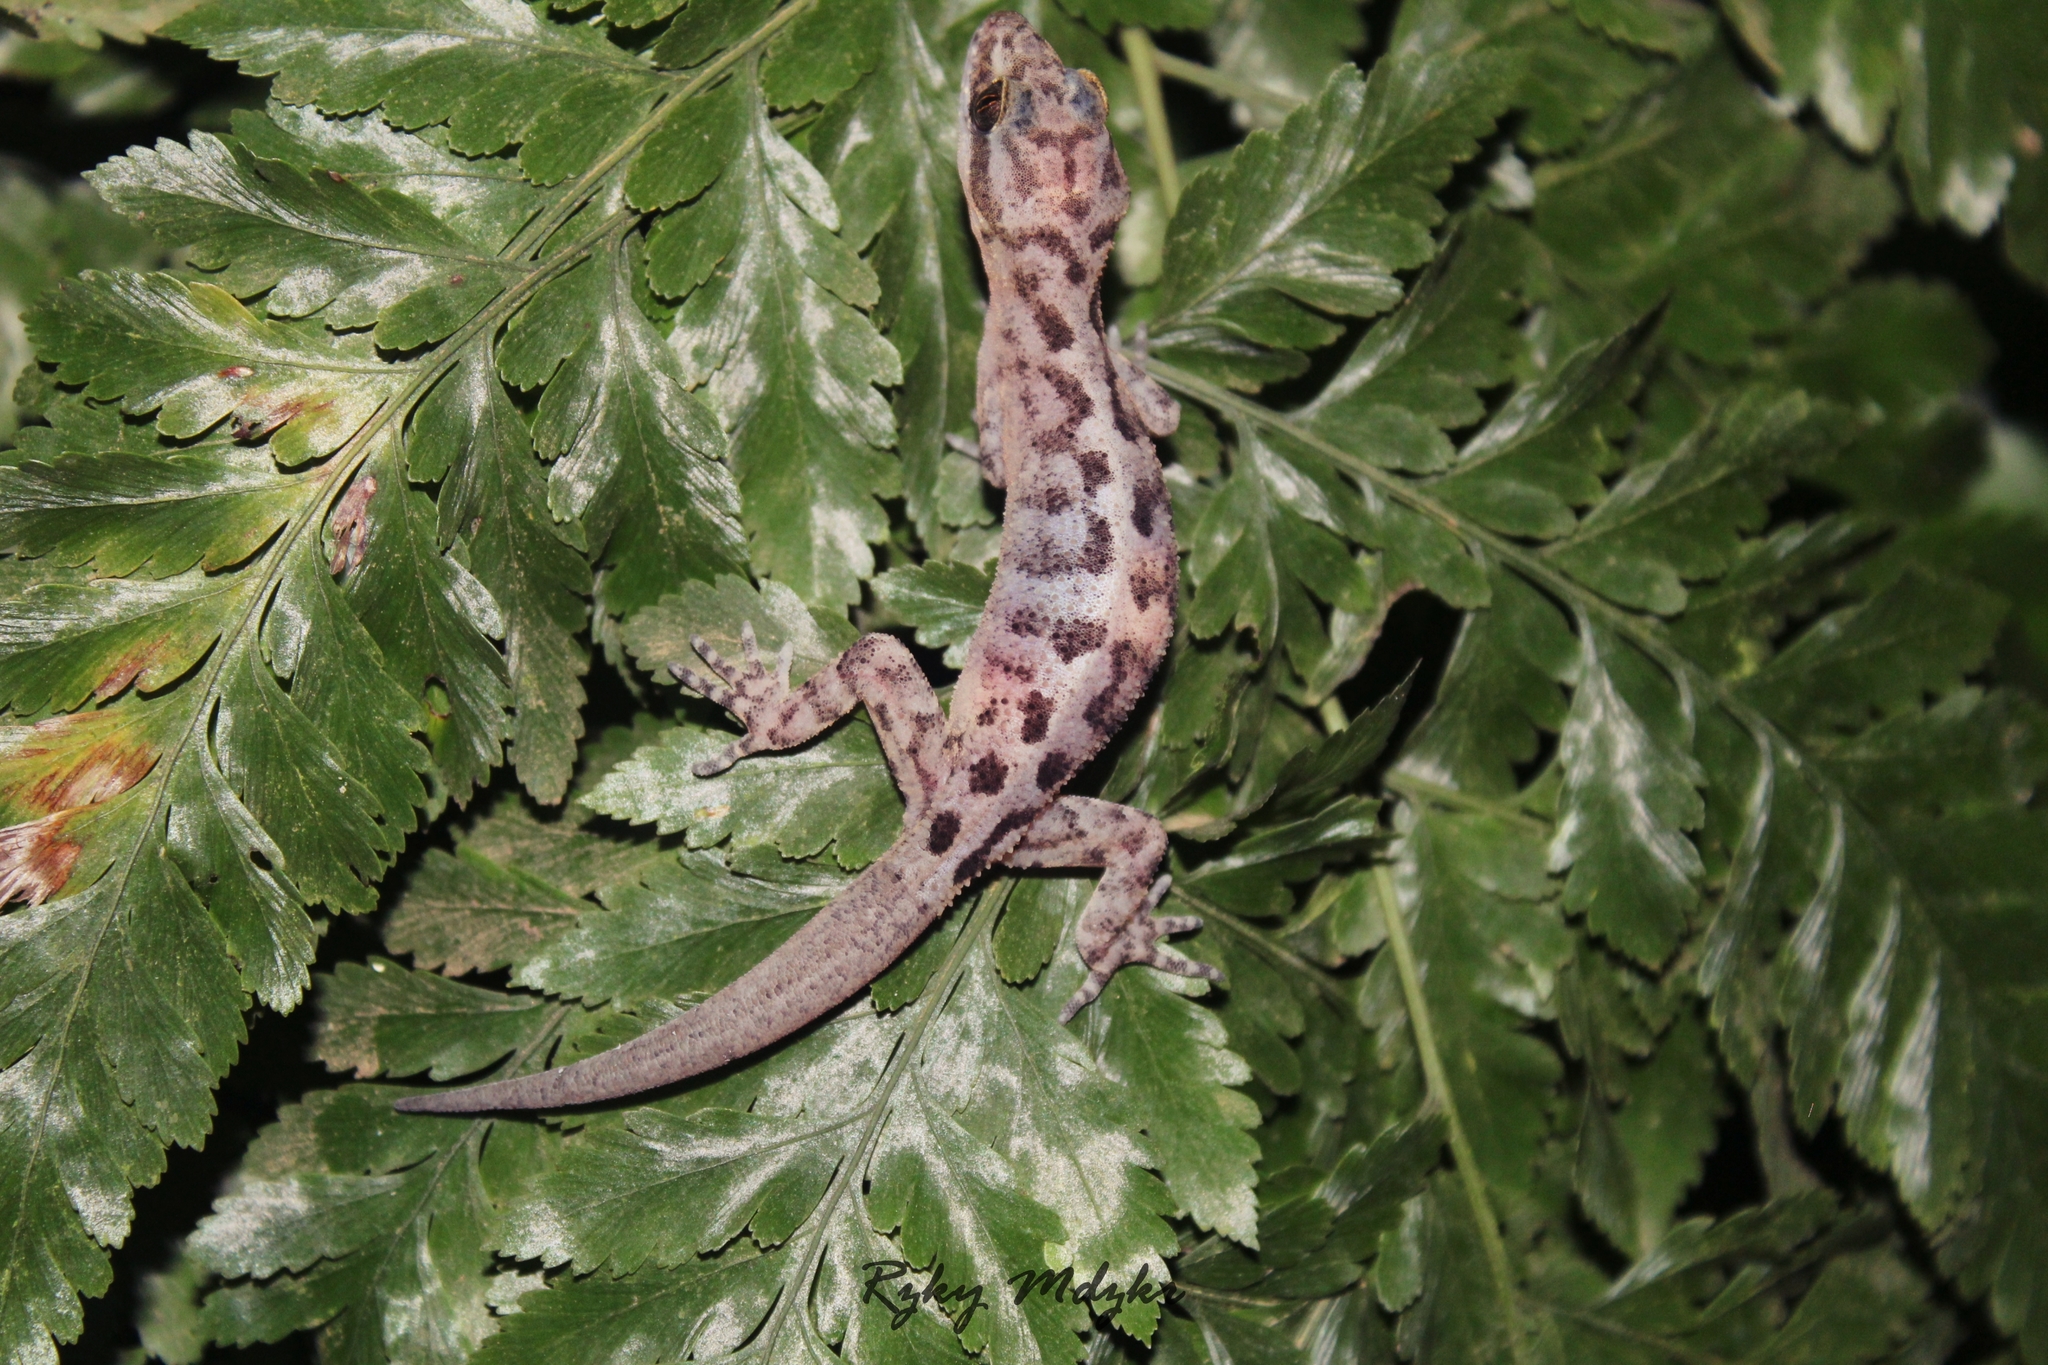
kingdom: Animalia
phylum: Chordata
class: Squamata
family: Gekkonidae
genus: Cyrtodactylus
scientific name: Cyrtodactylus marmoratus
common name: Marbled bow-fingered gecko
